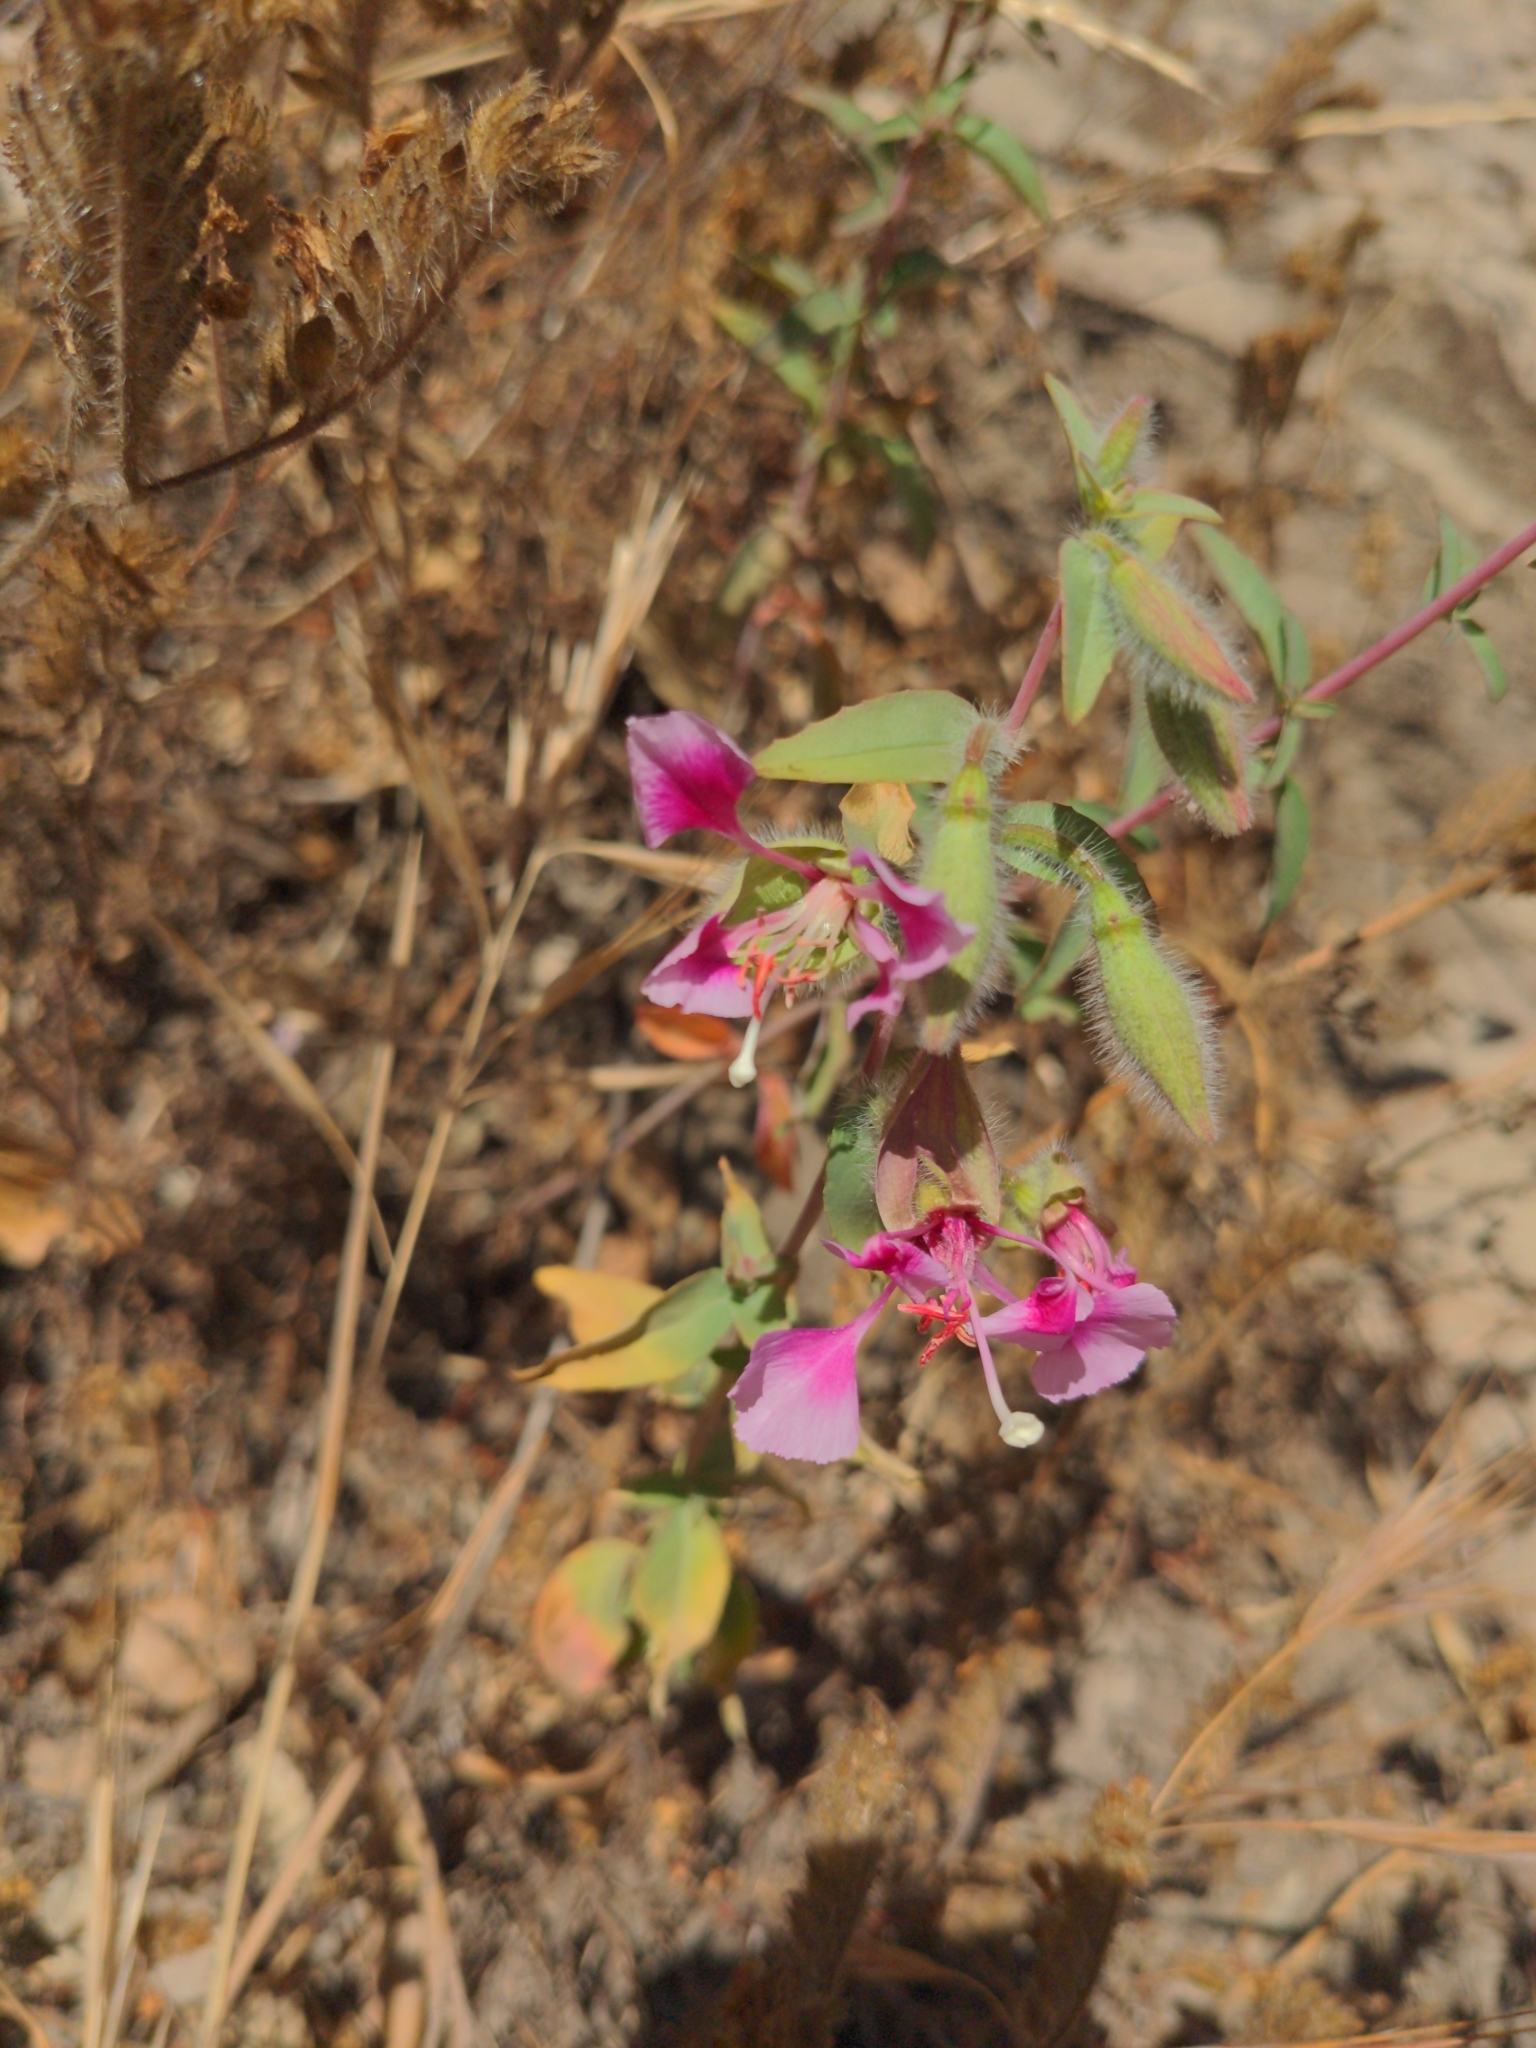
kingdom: Plantae
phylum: Tracheophyta
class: Magnoliopsida
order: Myrtales
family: Onagraceae
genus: Clarkia
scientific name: Clarkia unguiculata
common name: Clarkia
